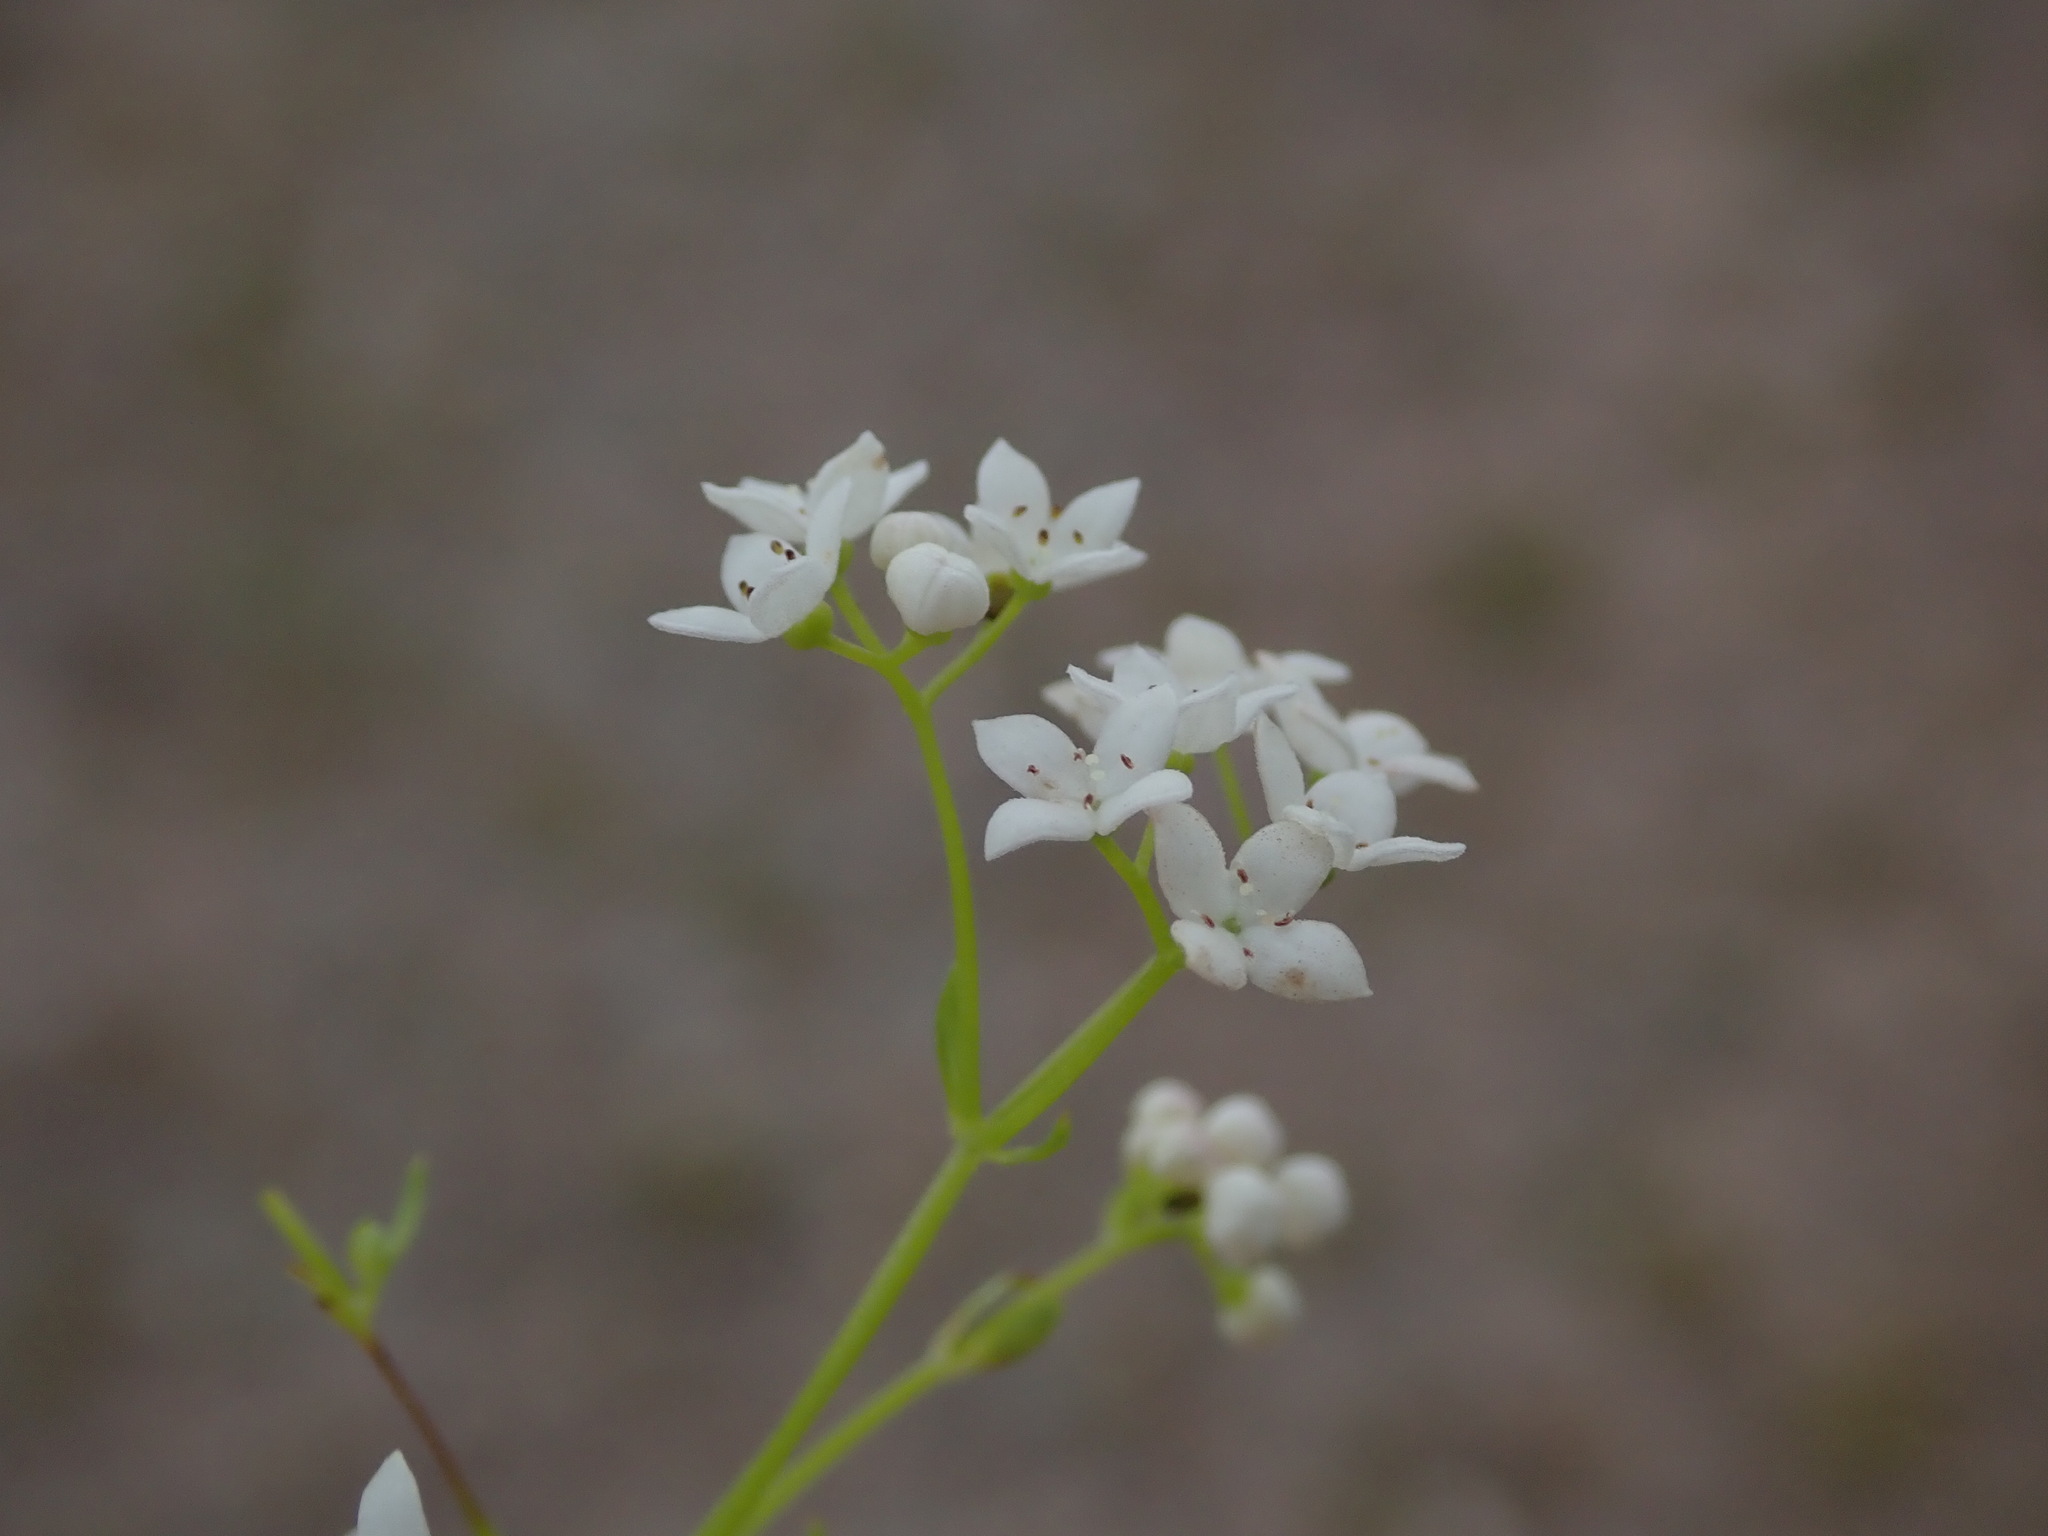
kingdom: Plantae
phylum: Tracheophyta
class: Magnoliopsida
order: Gentianales
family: Rubiaceae
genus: Galium
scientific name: Galium palustre
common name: Common marsh-bedstraw
